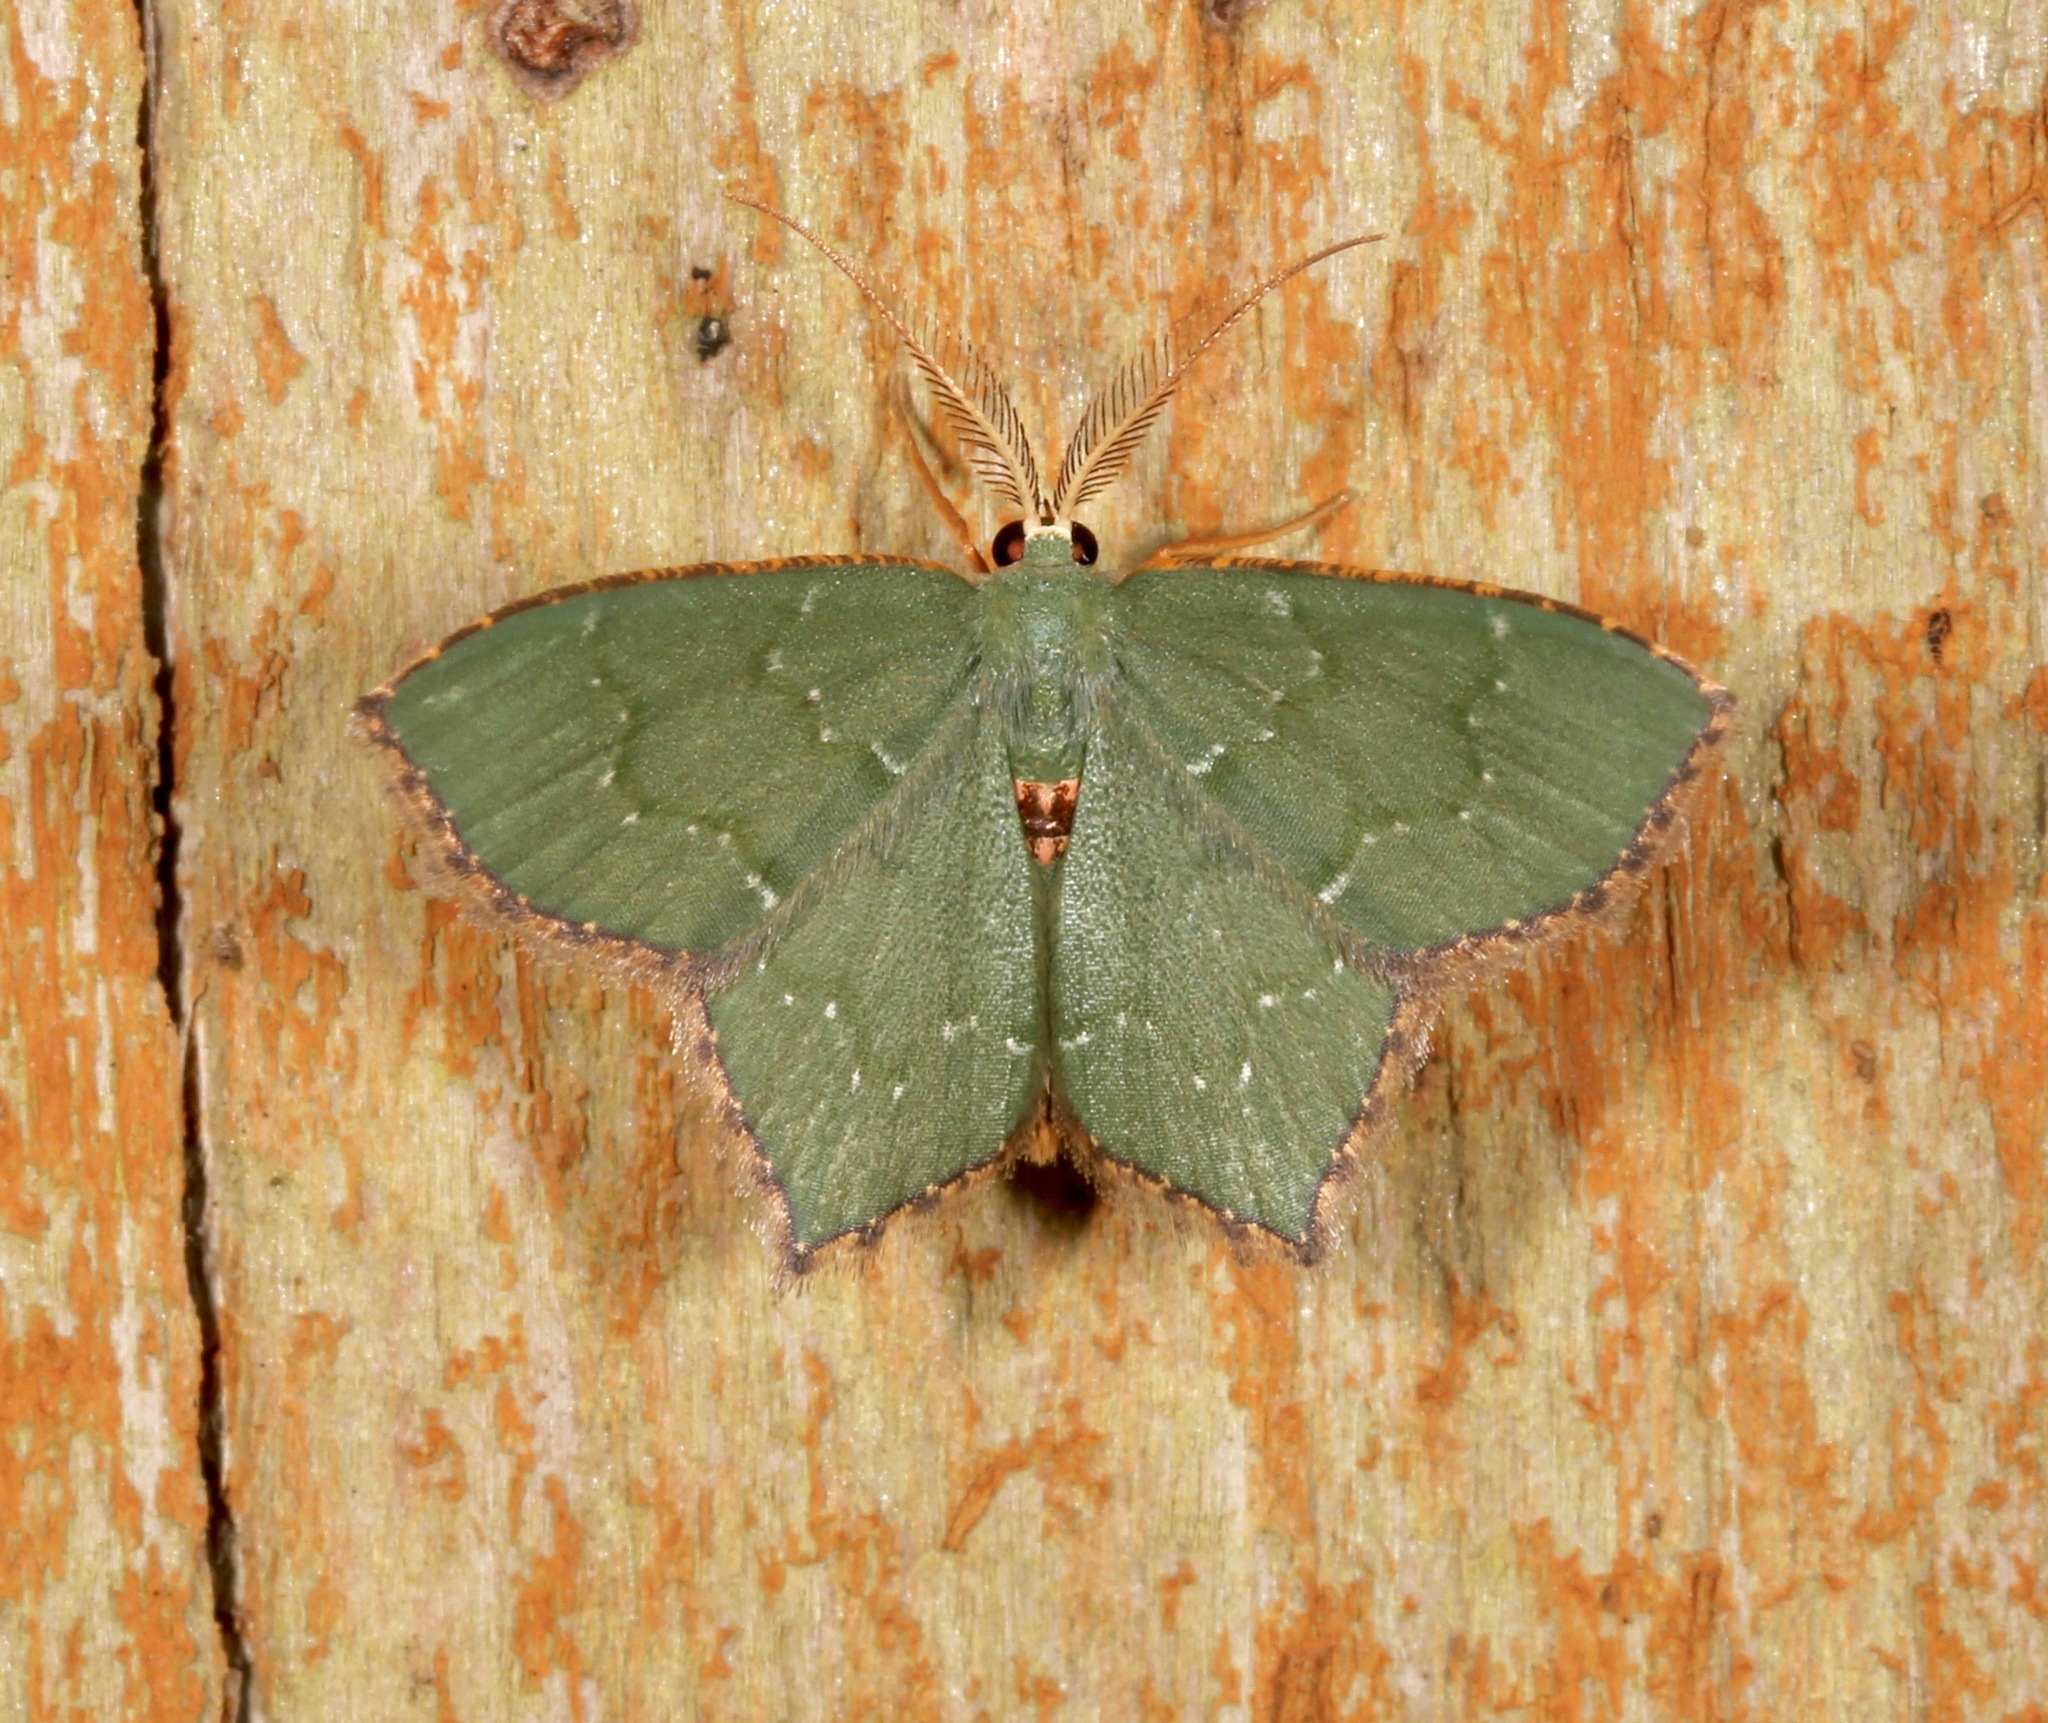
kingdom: Animalia
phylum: Arthropoda
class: Insecta
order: Lepidoptera
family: Geometridae
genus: Chloropteryx
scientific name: Chloropteryx tepperaria
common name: Angle winged emerald moth
